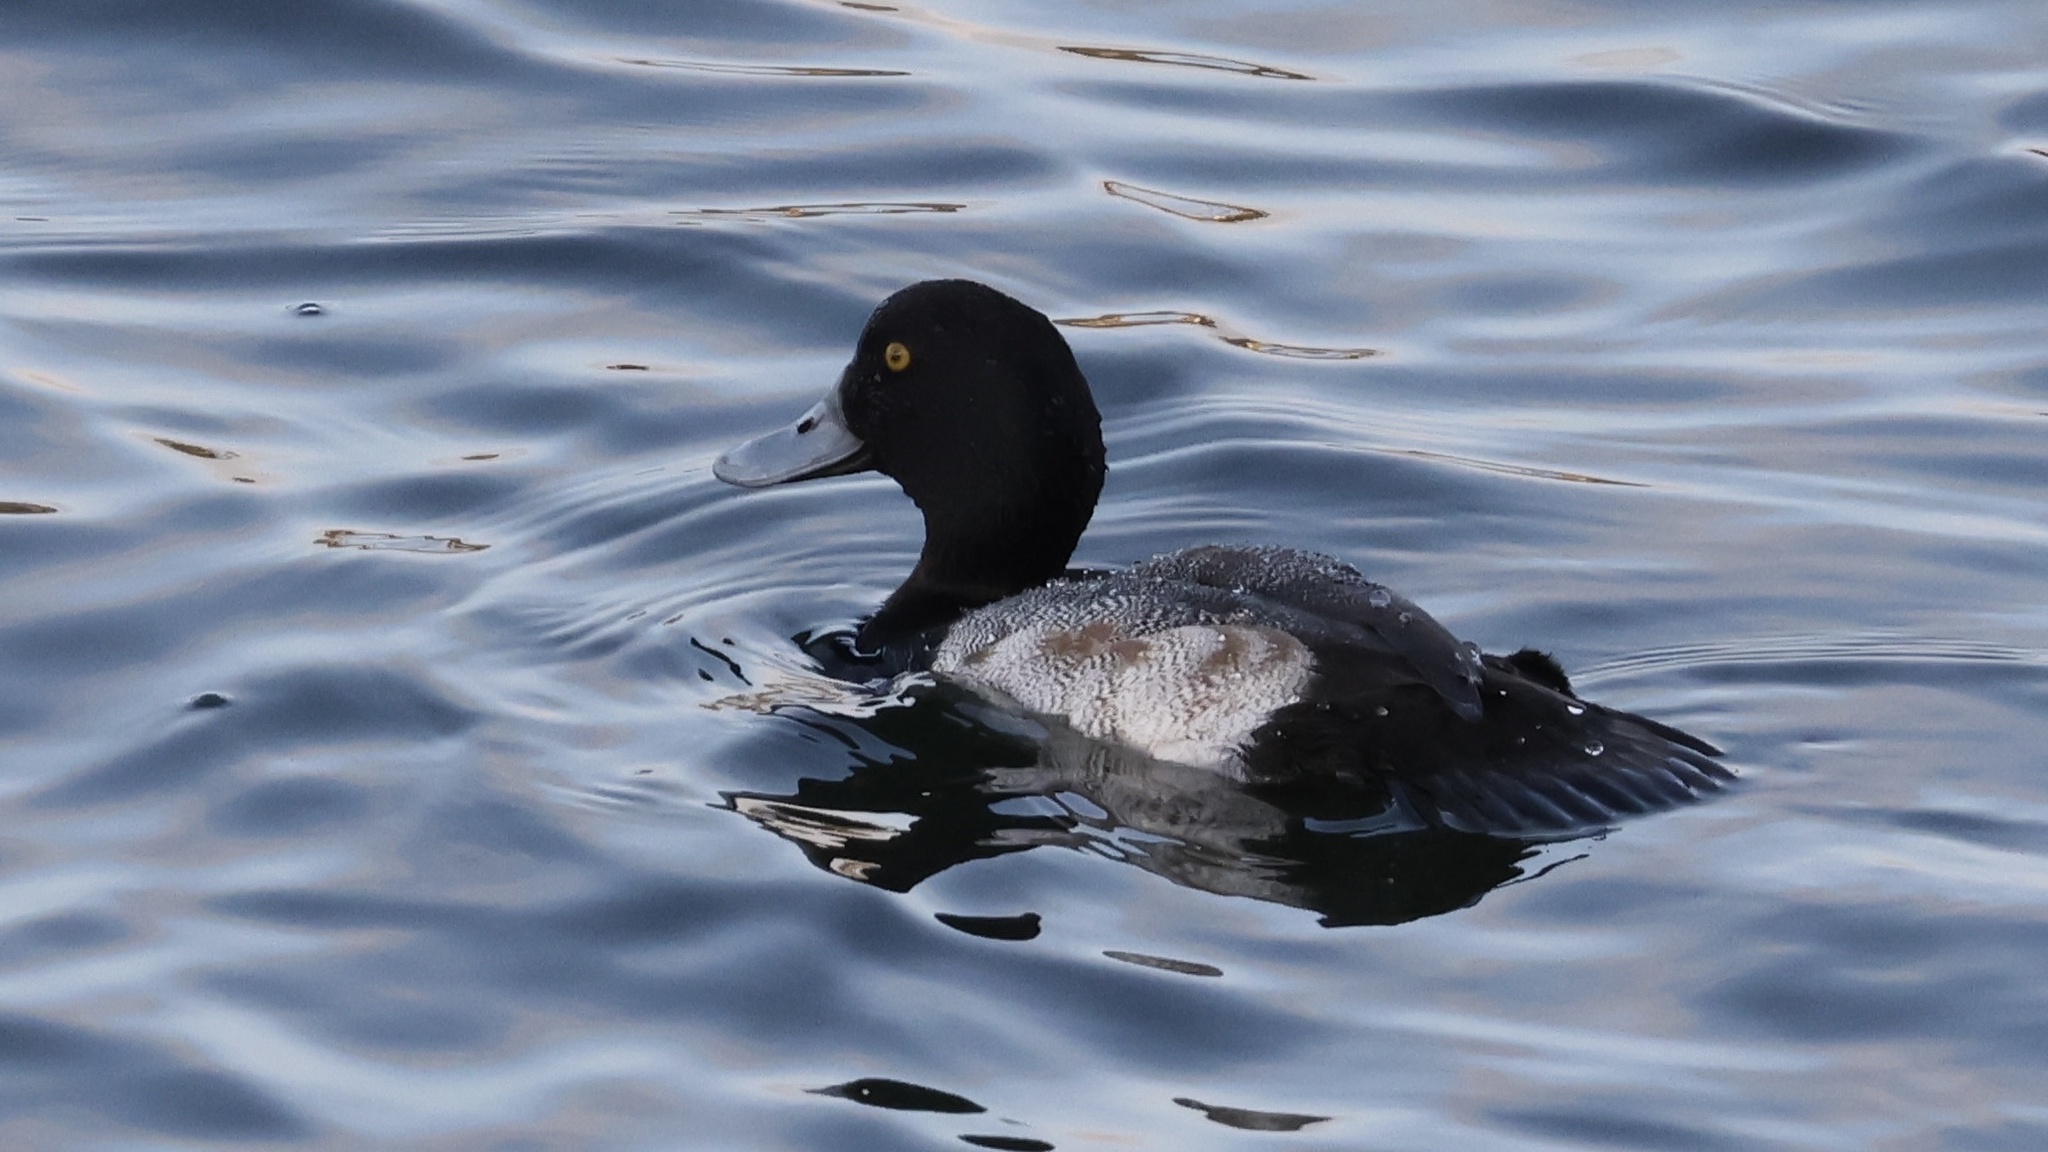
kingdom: Animalia
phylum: Chordata
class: Aves
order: Anseriformes
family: Anatidae
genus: Aythya
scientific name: Aythya affinis
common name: Lesser scaup
